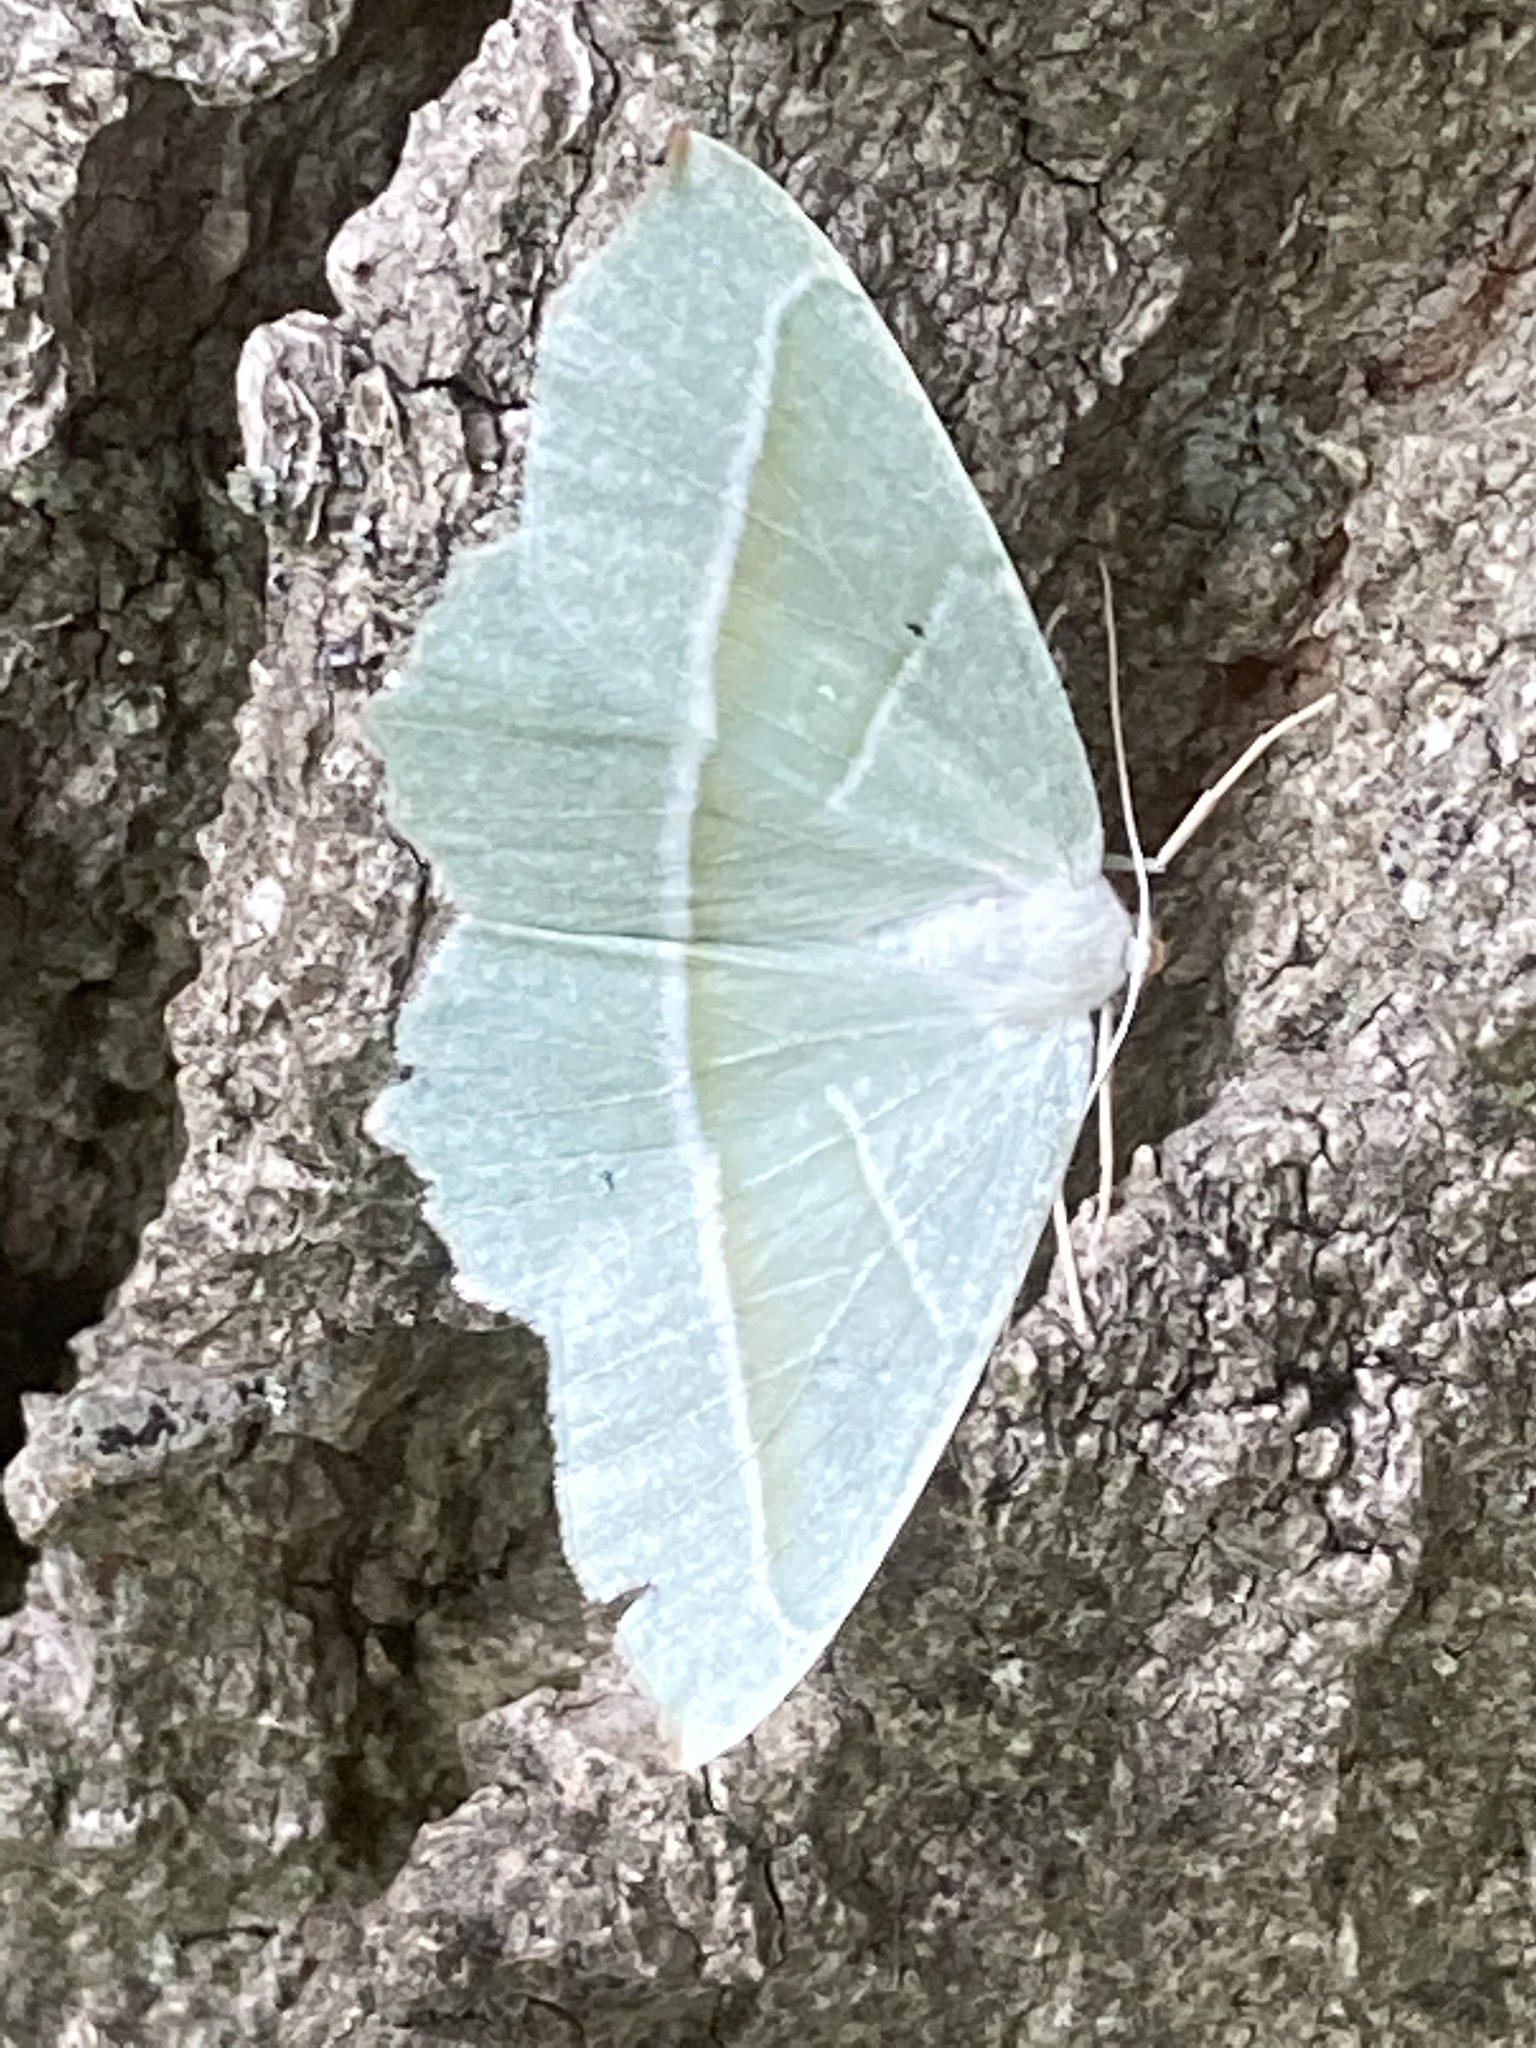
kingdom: Animalia
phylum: Arthropoda
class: Insecta
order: Lepidoptera
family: Geometridae
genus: Campaea
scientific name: Campaea margaritaria
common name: Light emerald
